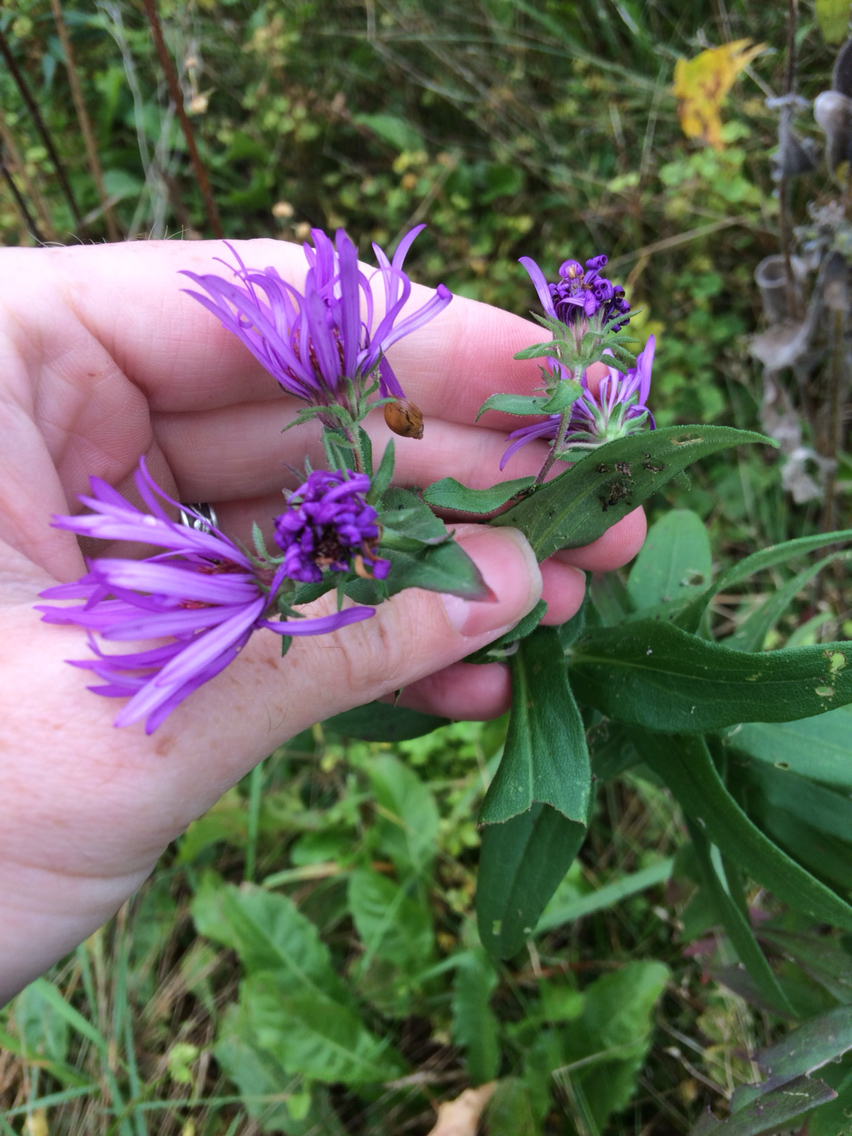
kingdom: Plantae
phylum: Tracheophyta
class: Magnoliopsida
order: Asterales
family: Asteraceae
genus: Symphyotrichum
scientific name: Symphyotrichum novae-angliae
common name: Michaelmas daisy
